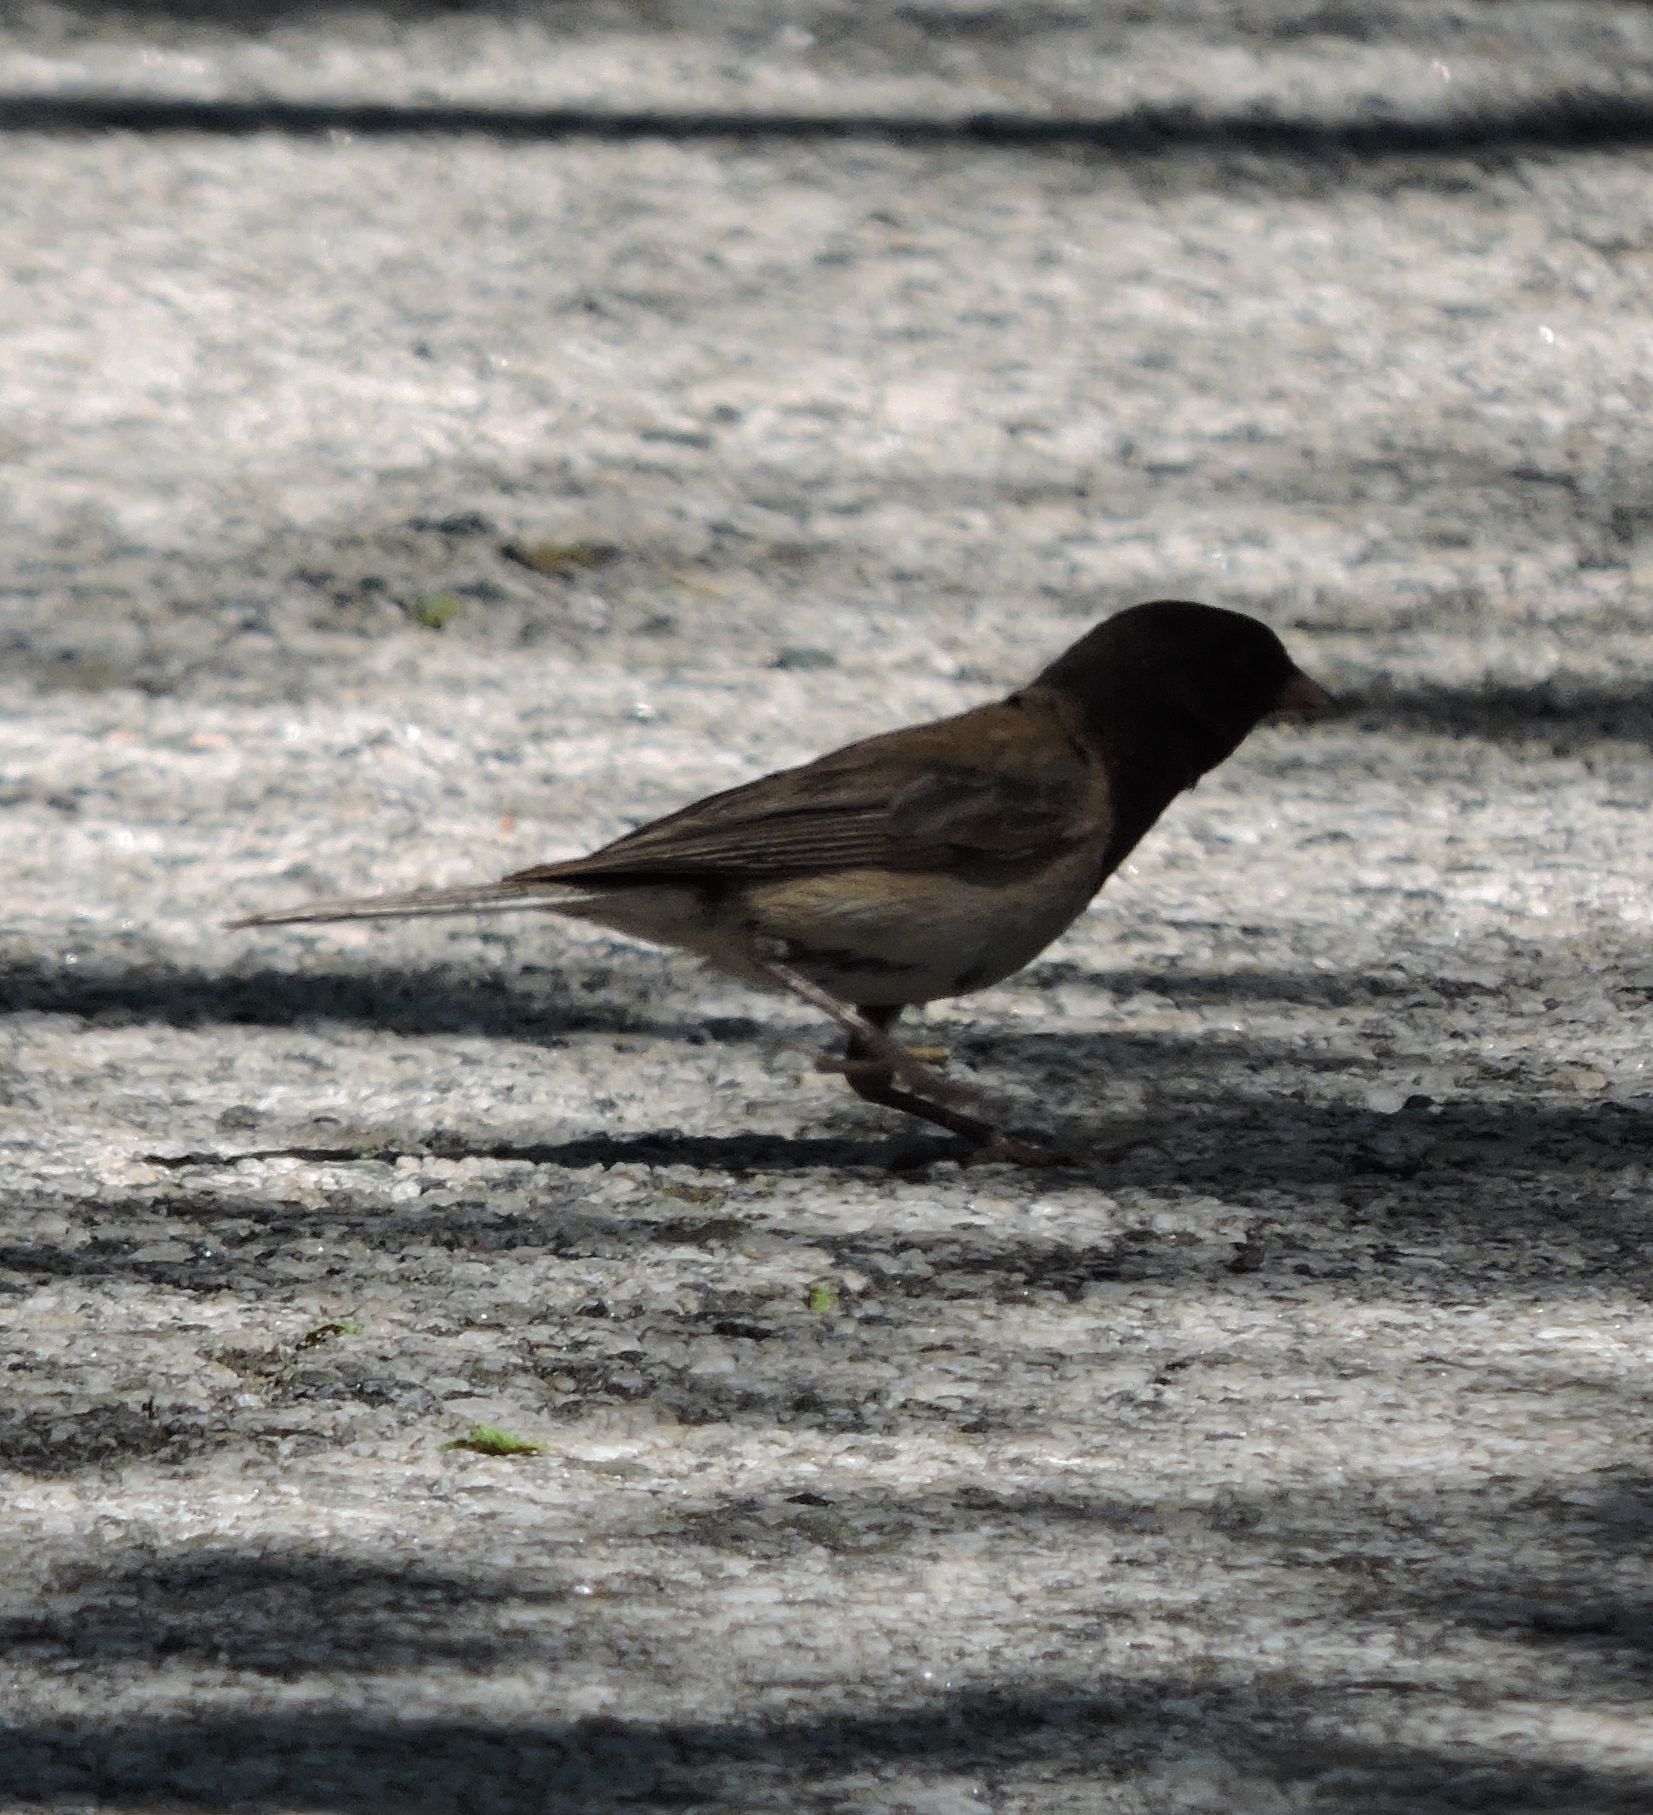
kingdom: Animalia
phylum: Chordata
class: Aves
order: Passeriformes
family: Passerellidae
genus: Junco
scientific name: Junco hyemalis
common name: Dark-eyed junco
